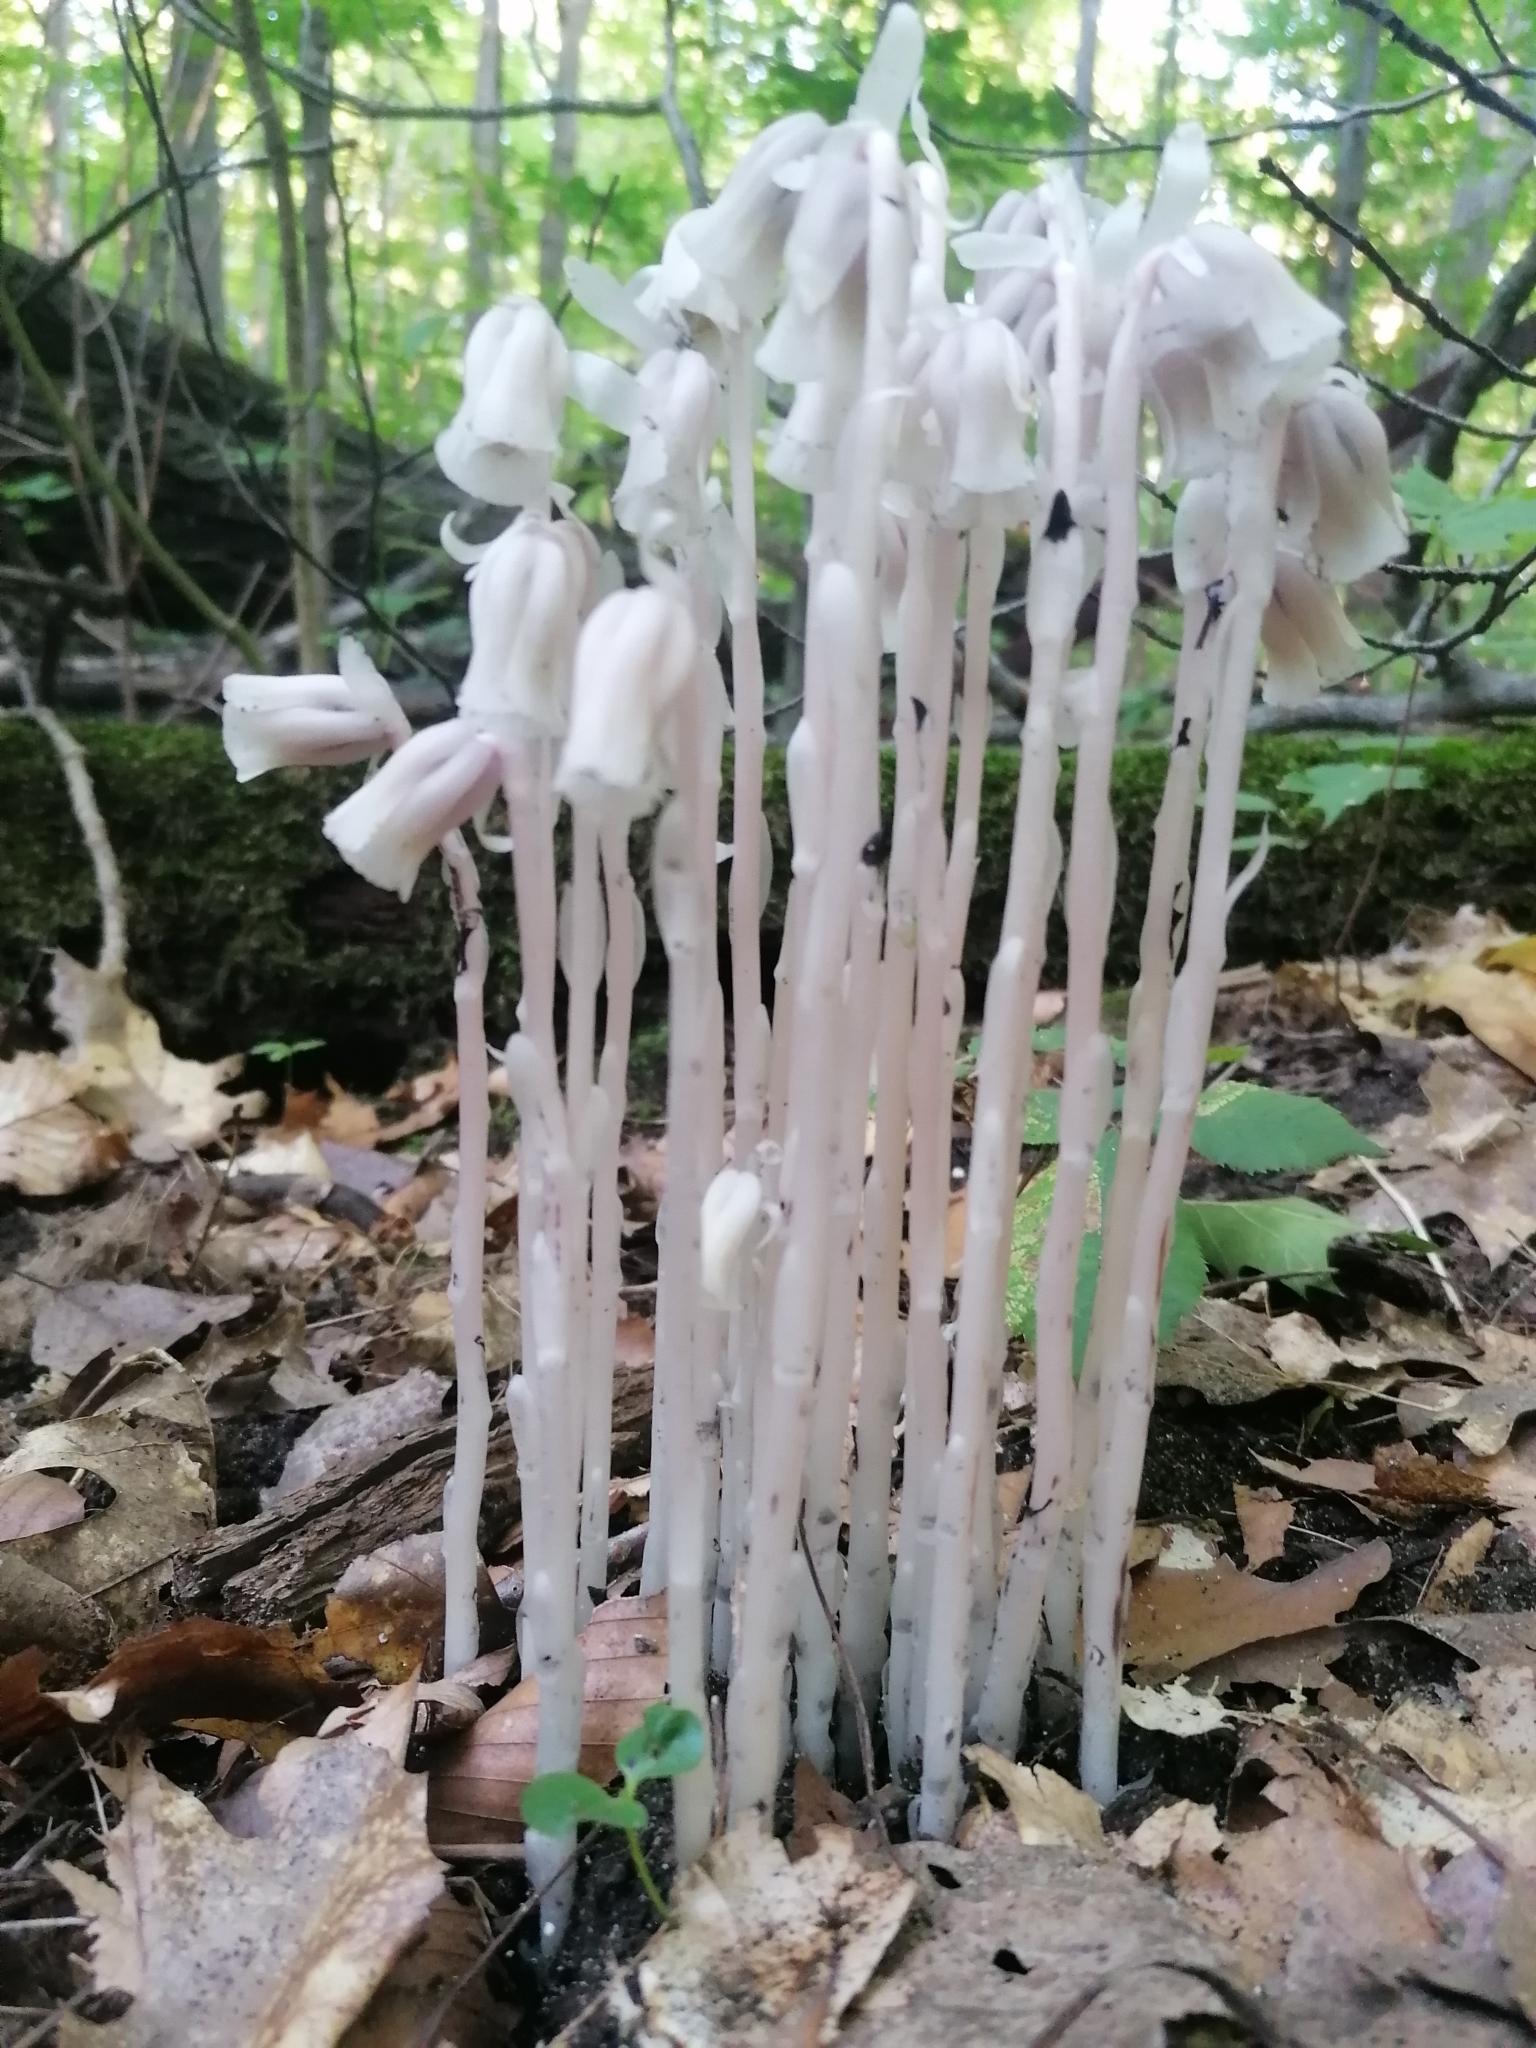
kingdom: Plantae
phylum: Tracheophyta
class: Magnoliopsida
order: Ericales
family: Ericaceae
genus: Monotropa
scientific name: Monotropa uniflora
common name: Convulsion root
